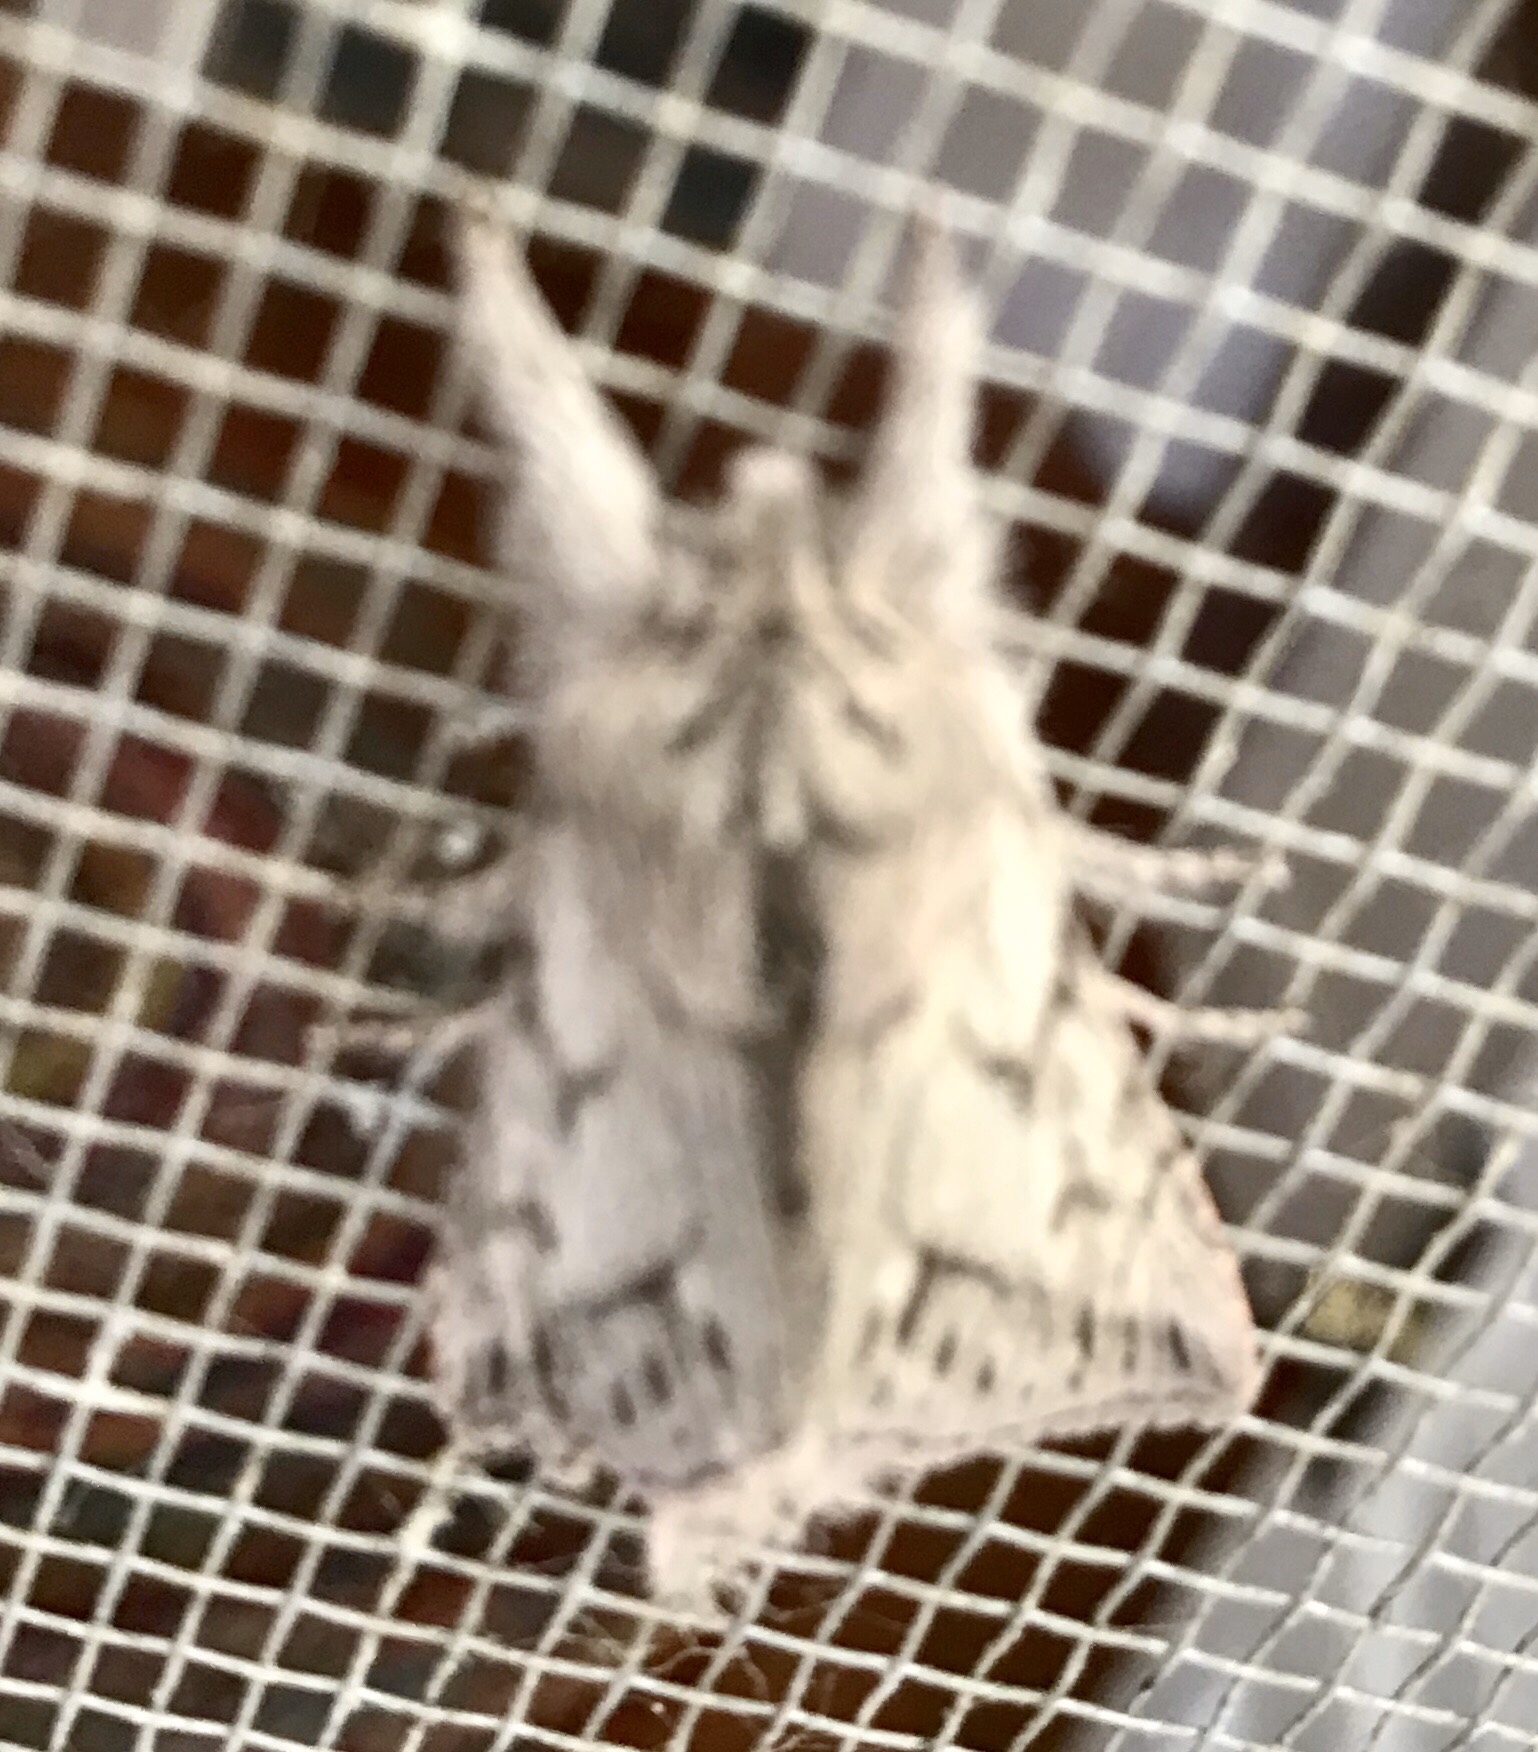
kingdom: Animalia
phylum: Arthropoda
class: Insecta
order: Lepidoptera
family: Noctuidae
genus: Pleromelloida
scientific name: Pleromelloida cinerea
